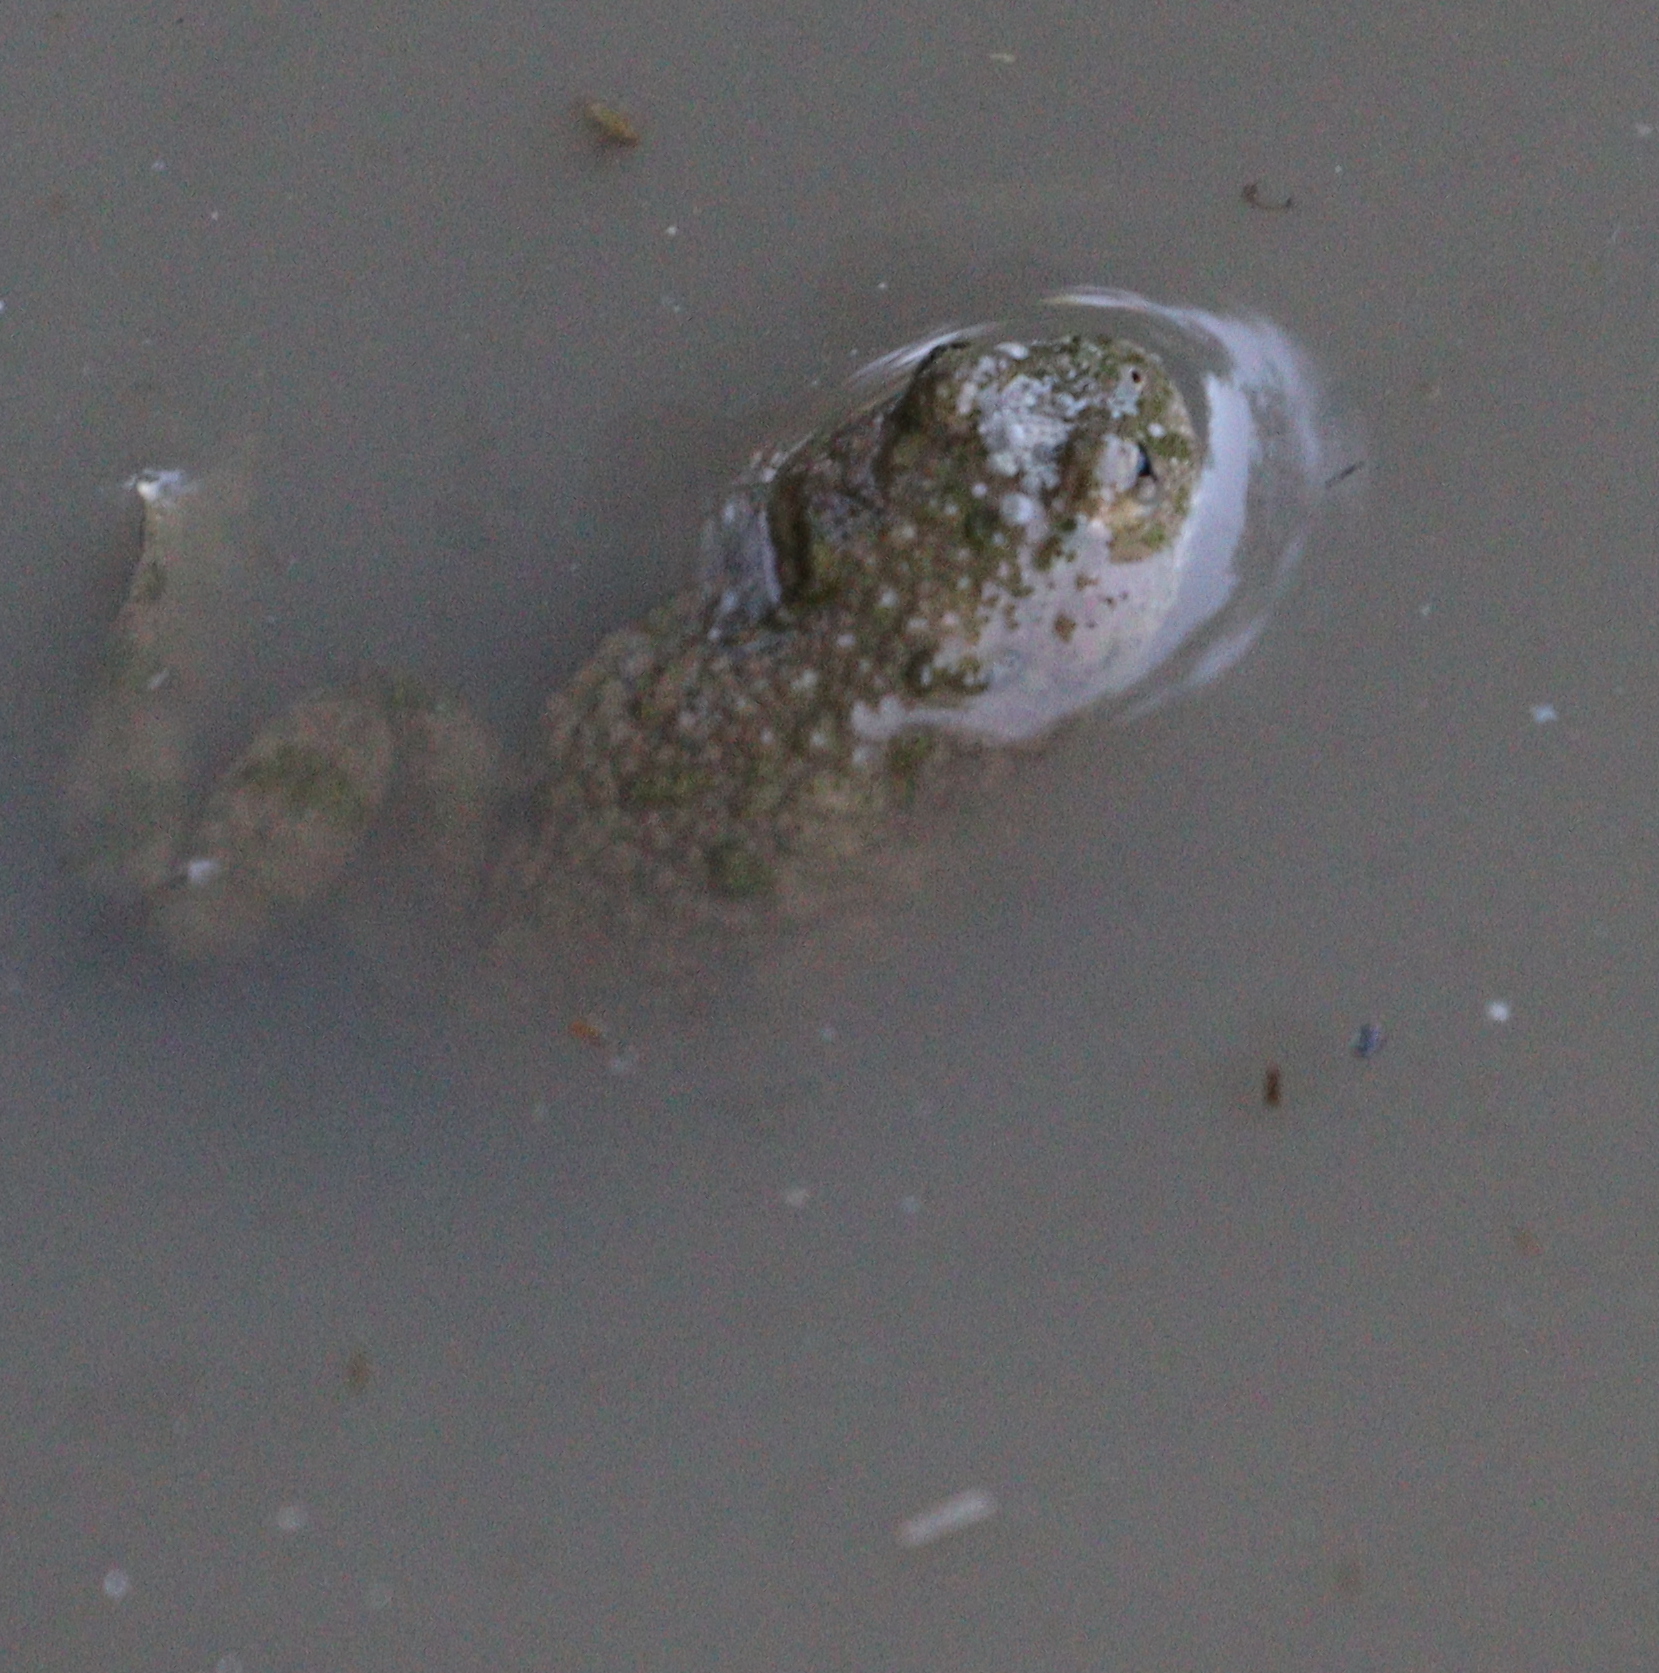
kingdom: Animalia
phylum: Chordata
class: Amphibia
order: Anura
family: Bombinatoridae
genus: Bombina
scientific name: Bombina variegata
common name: Yellow-bellied toad
